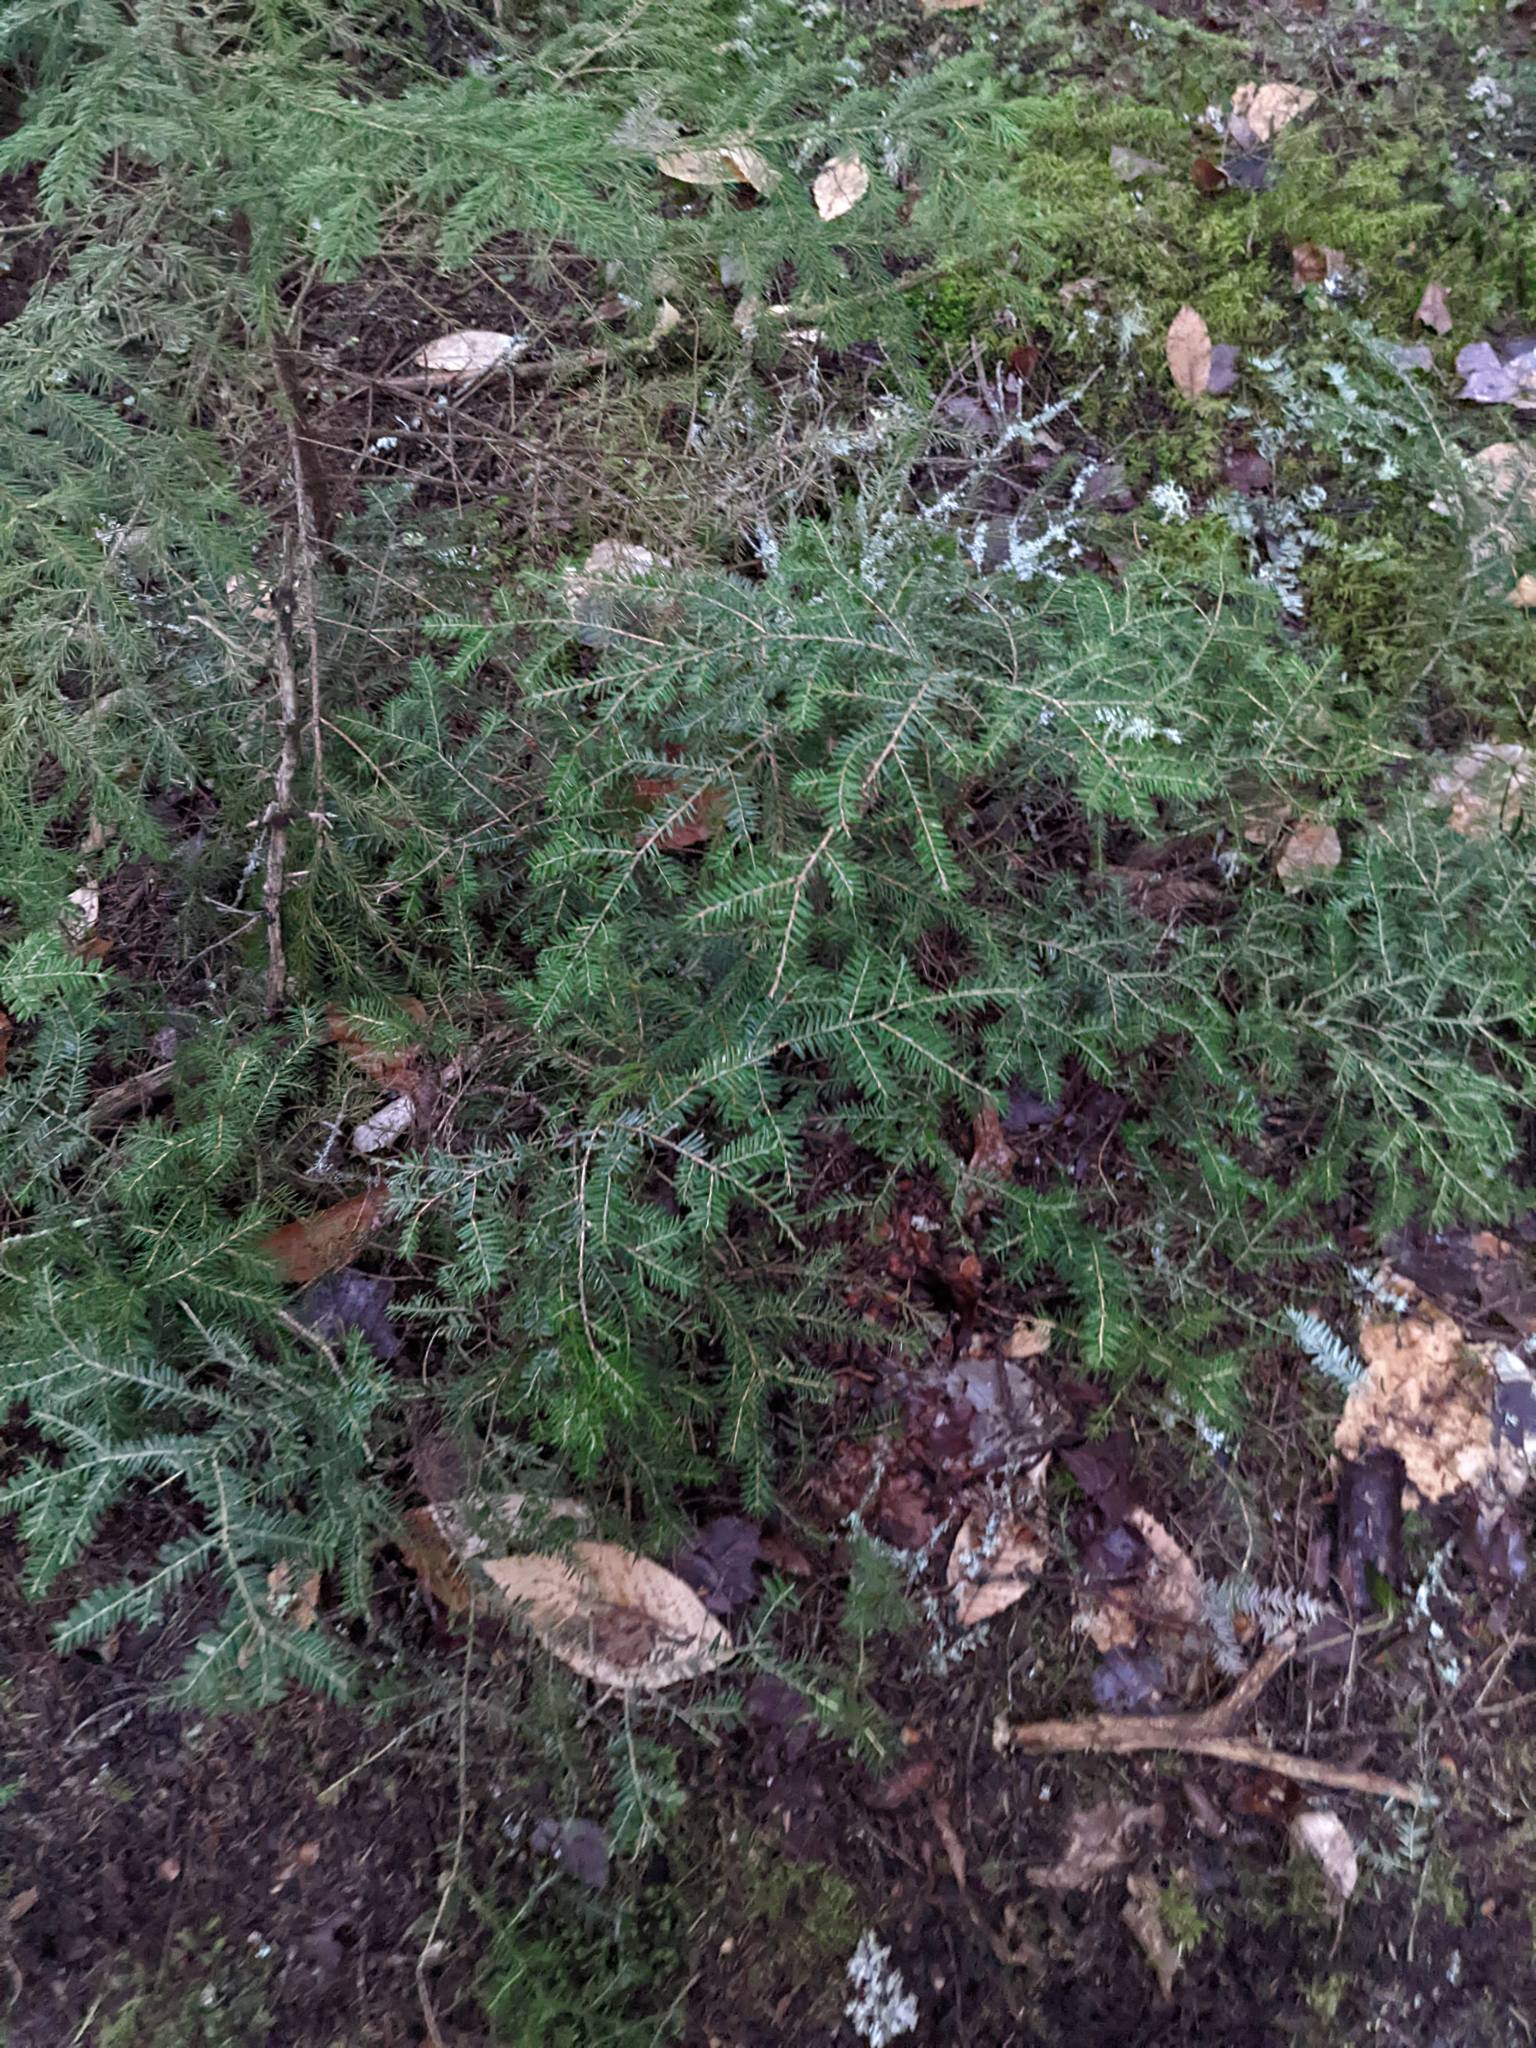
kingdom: Plantae
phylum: Tracheophyta
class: Pinopsida
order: Pinales
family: Pinaceae
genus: Tsuga
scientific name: Tsuga canadensis
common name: Eastern hemlock
